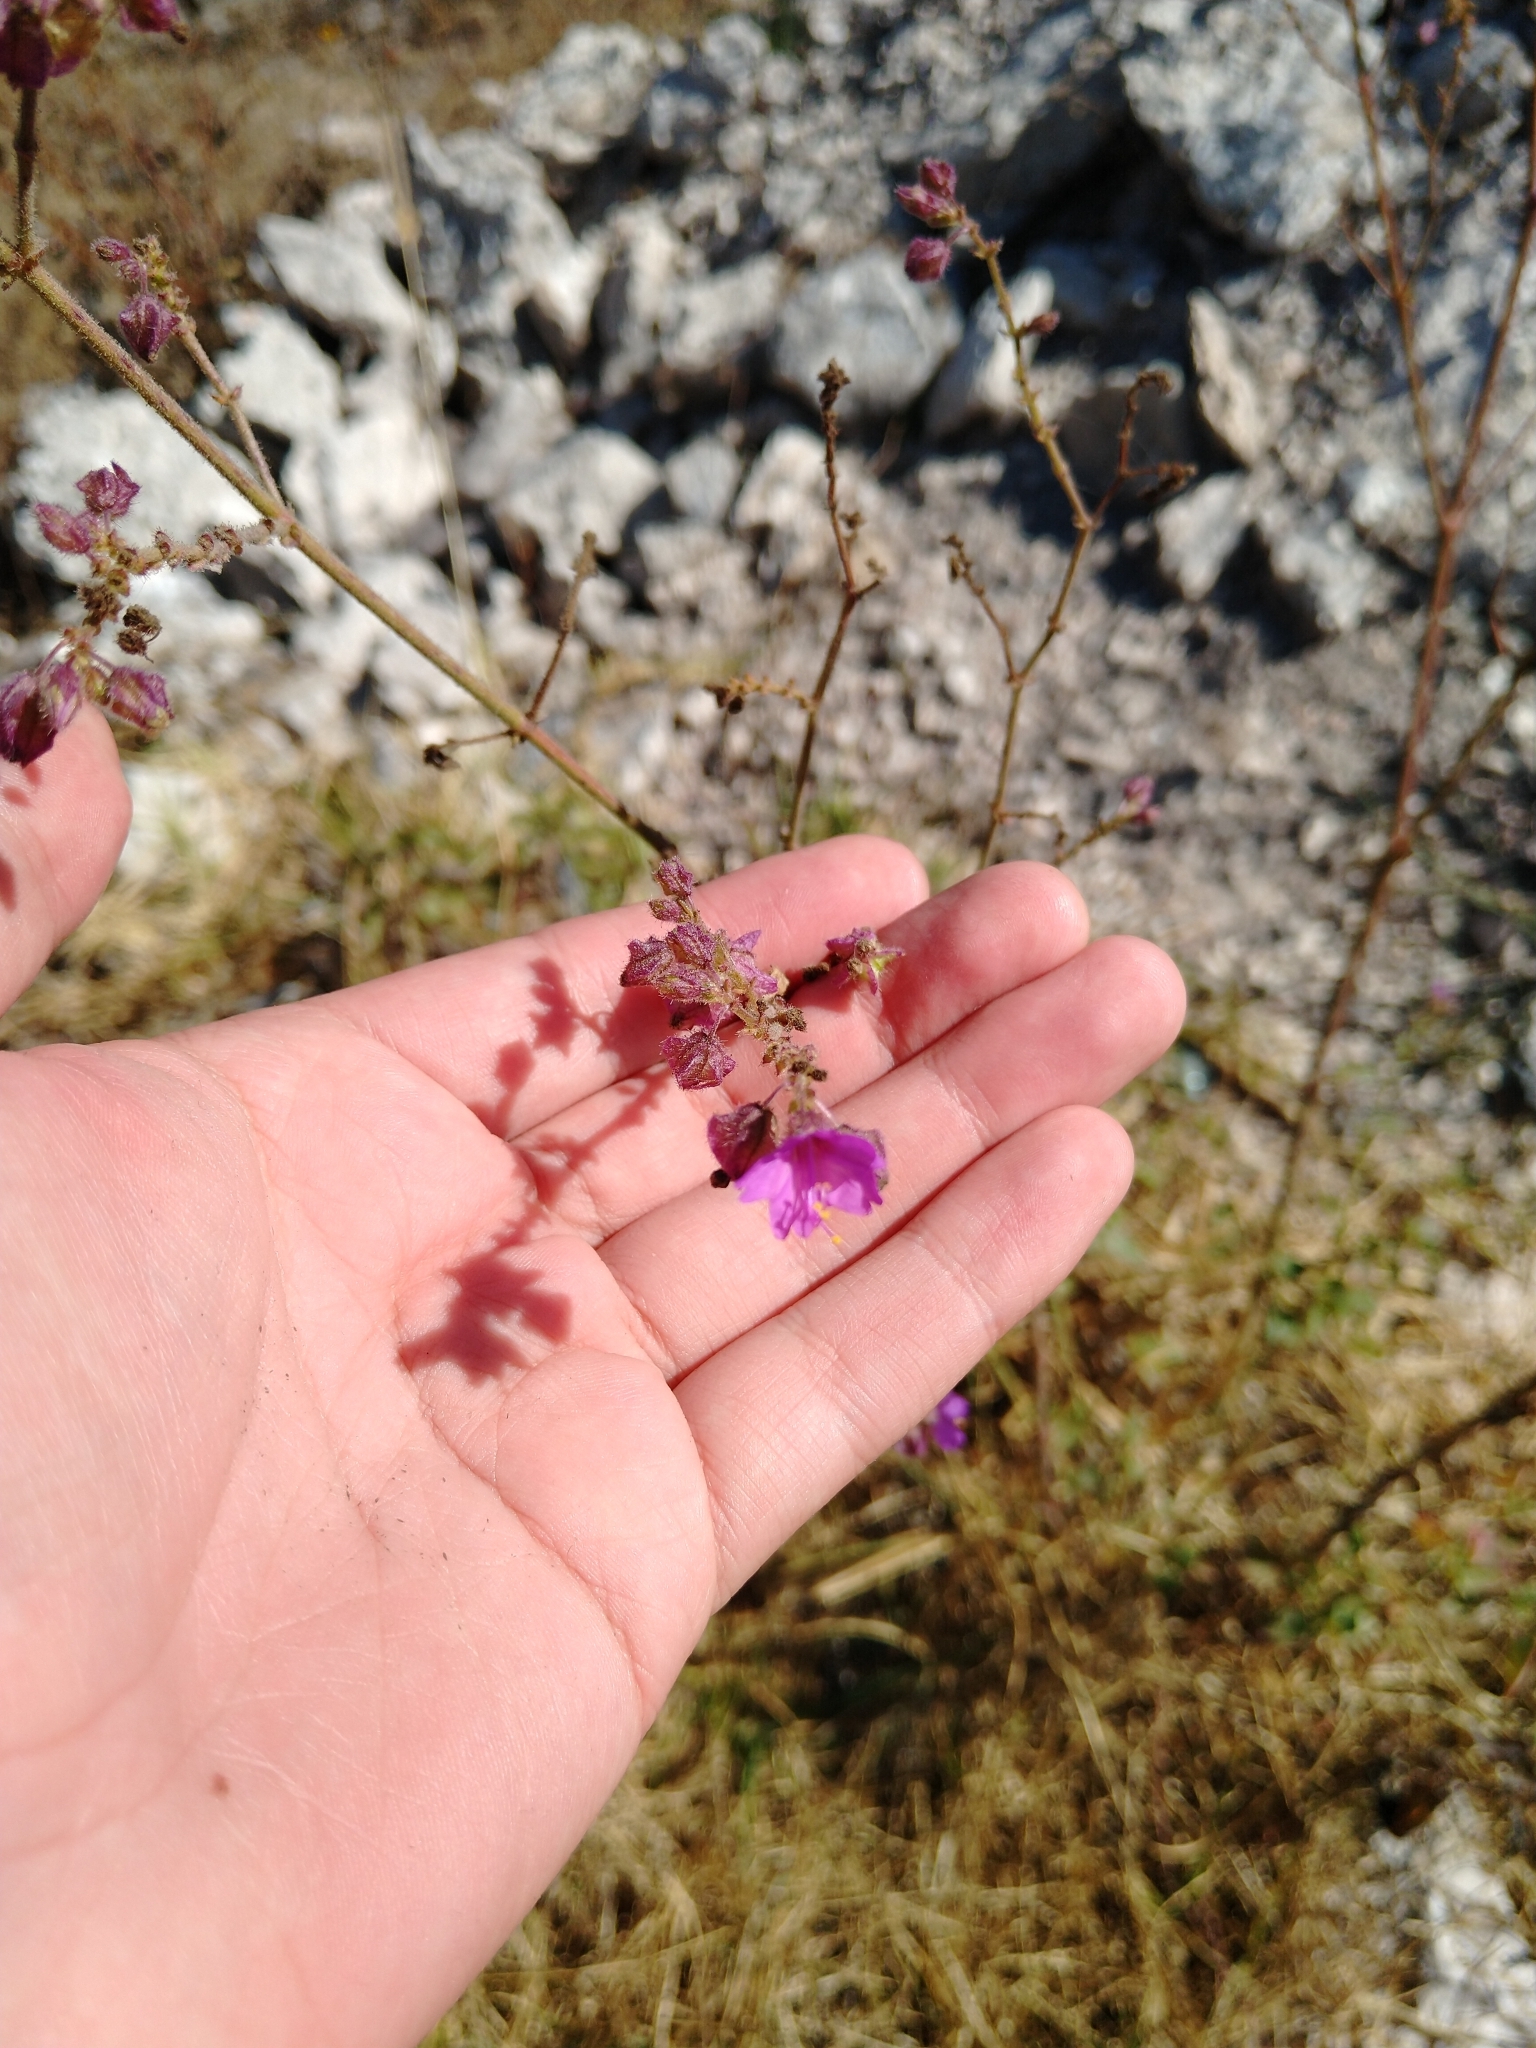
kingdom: Plantae
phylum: Tracheophyta
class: Magnoliopsida
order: Caryophyllales
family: Nyctaginaceae
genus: Mirabilis
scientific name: Mirabilis viscosa
